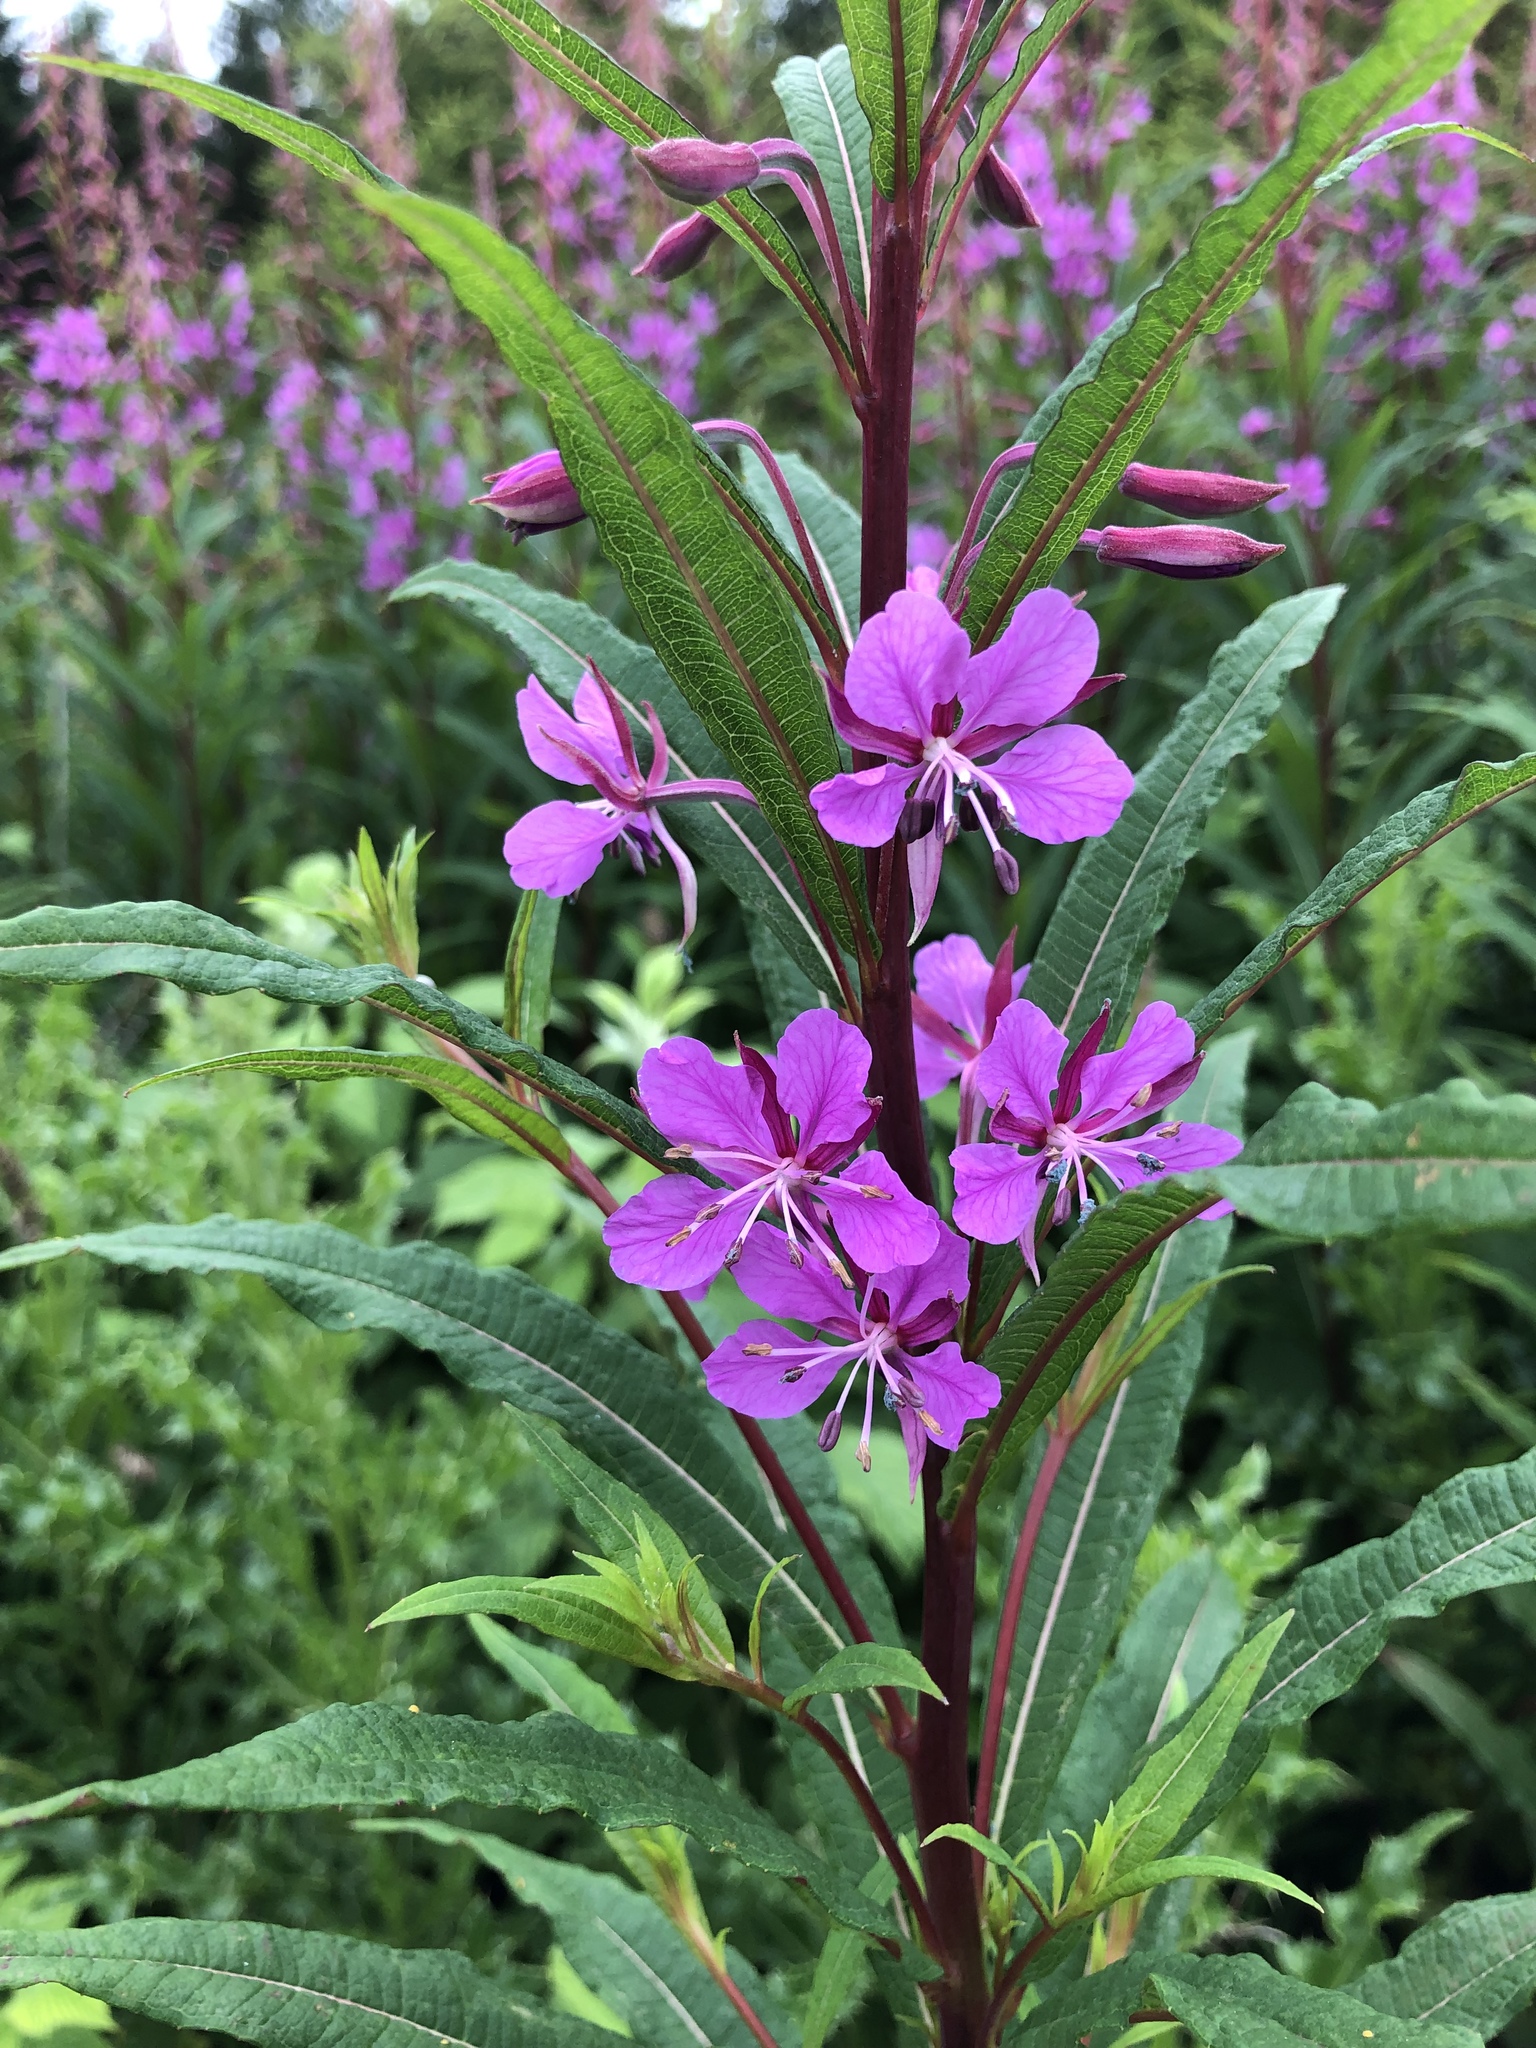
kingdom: Plantae
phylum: Tracheophyta
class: Magnoliopsida
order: Myrtales
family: Onagraceae
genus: Chamaenerion
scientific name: Chamaenerion angustifolium
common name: Fireweed
